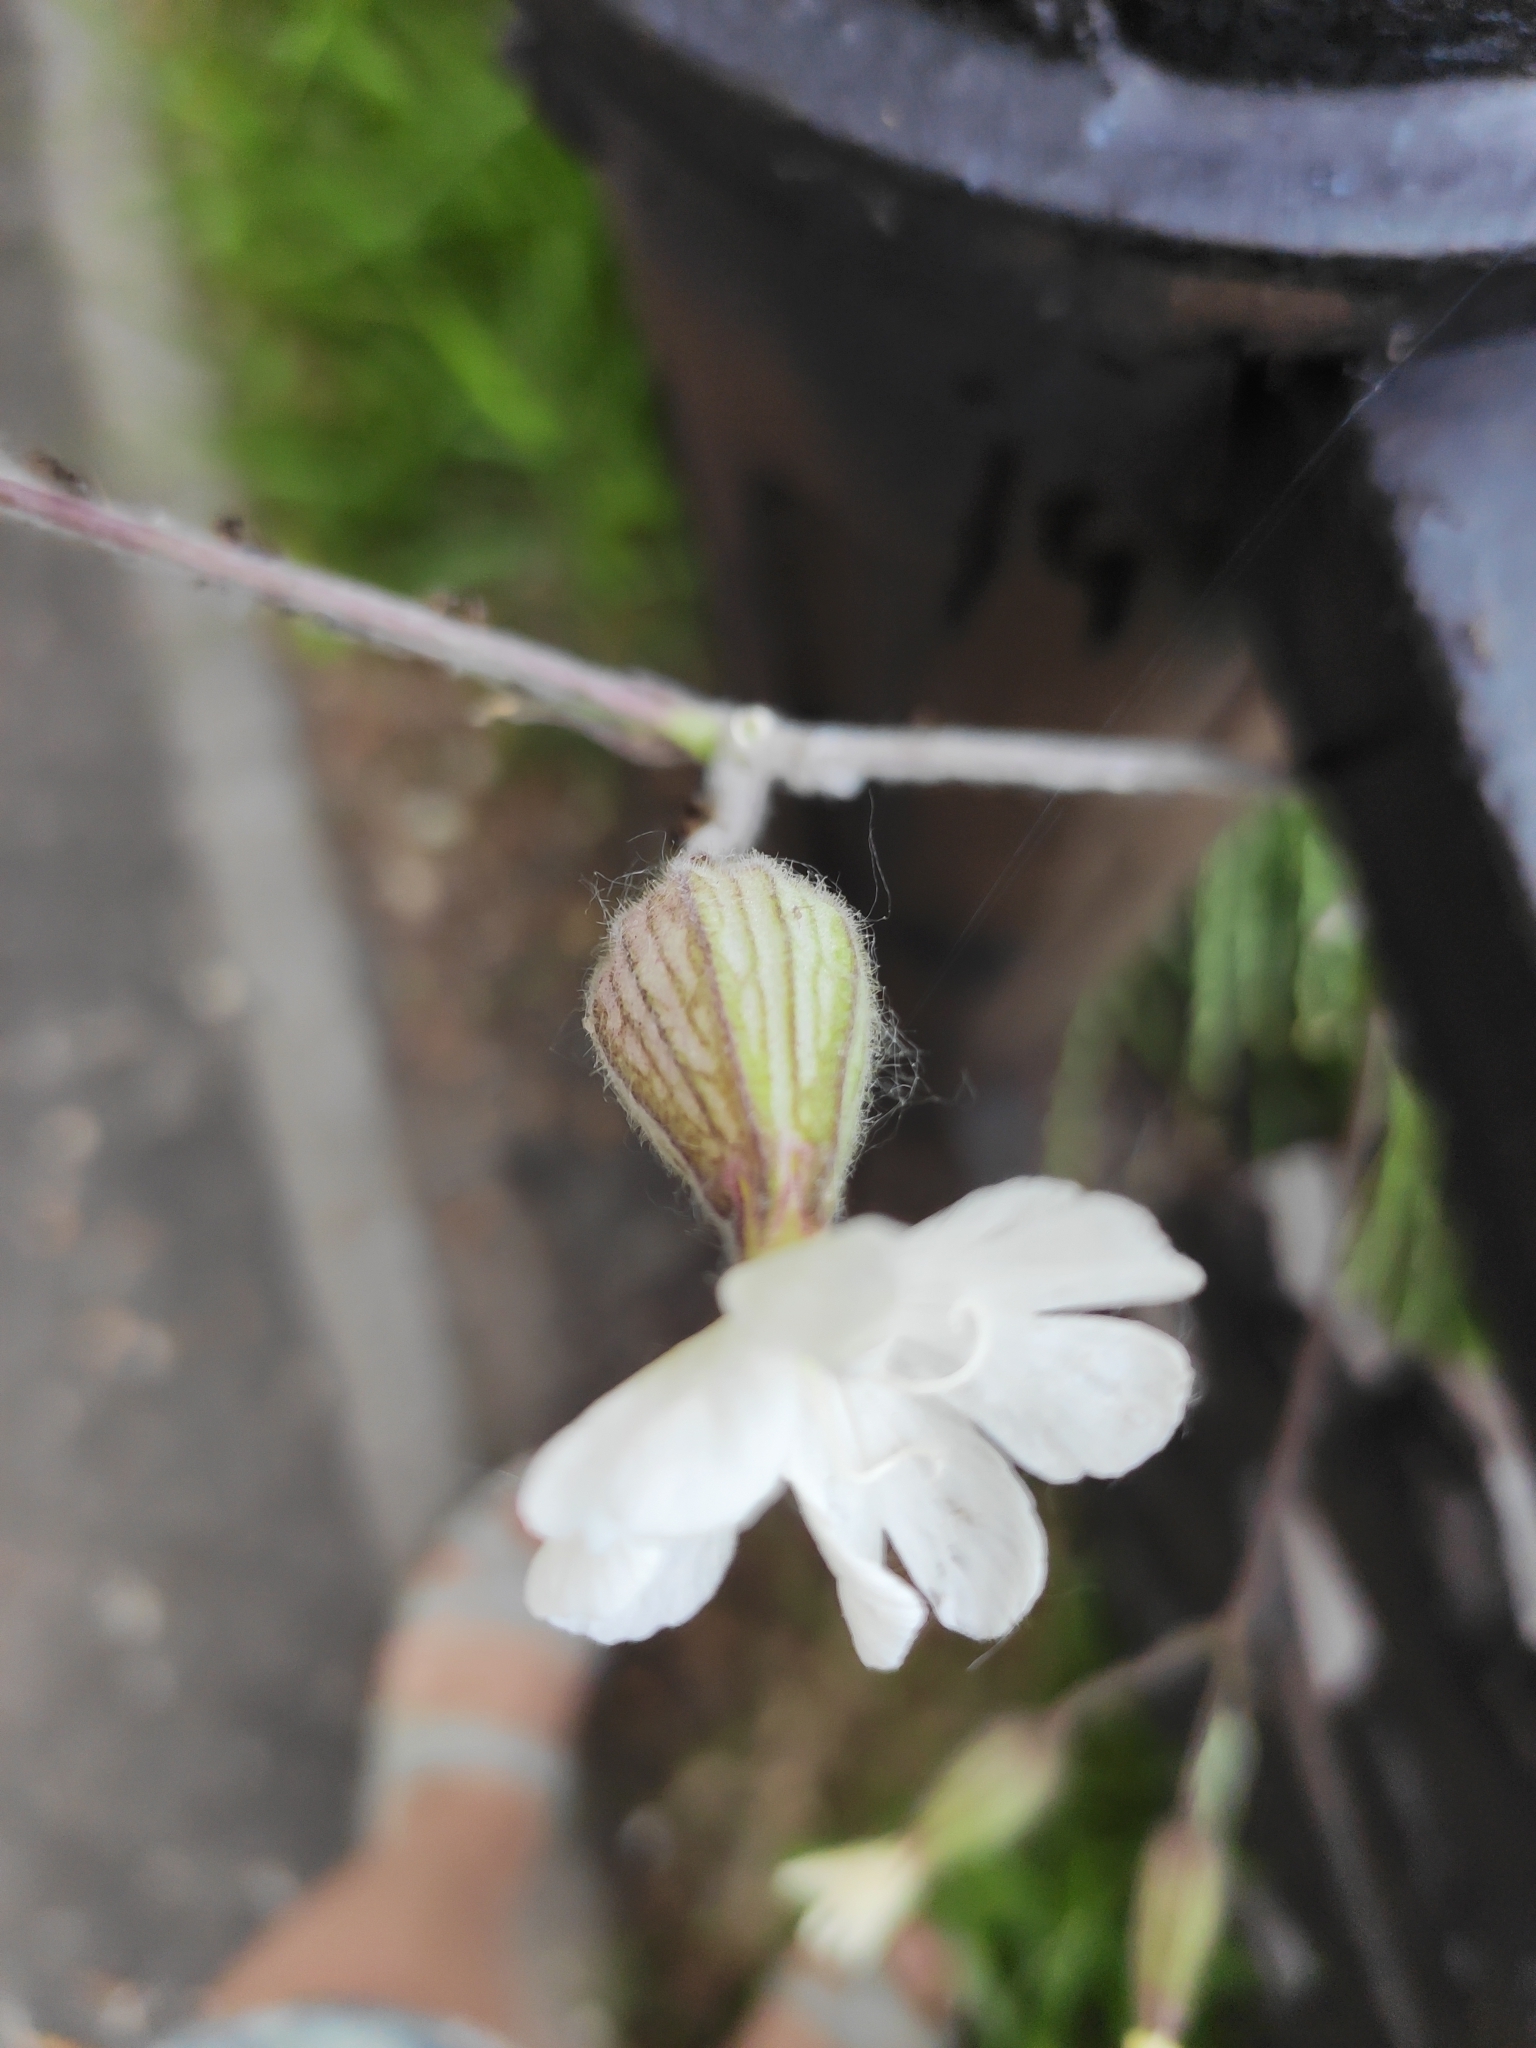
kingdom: Plantae
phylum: Tracheophyta
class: Magnoliopsida
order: Caryophyllales
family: Caryophyllaceae
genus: Silene
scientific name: Silene latifolia
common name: White campion
